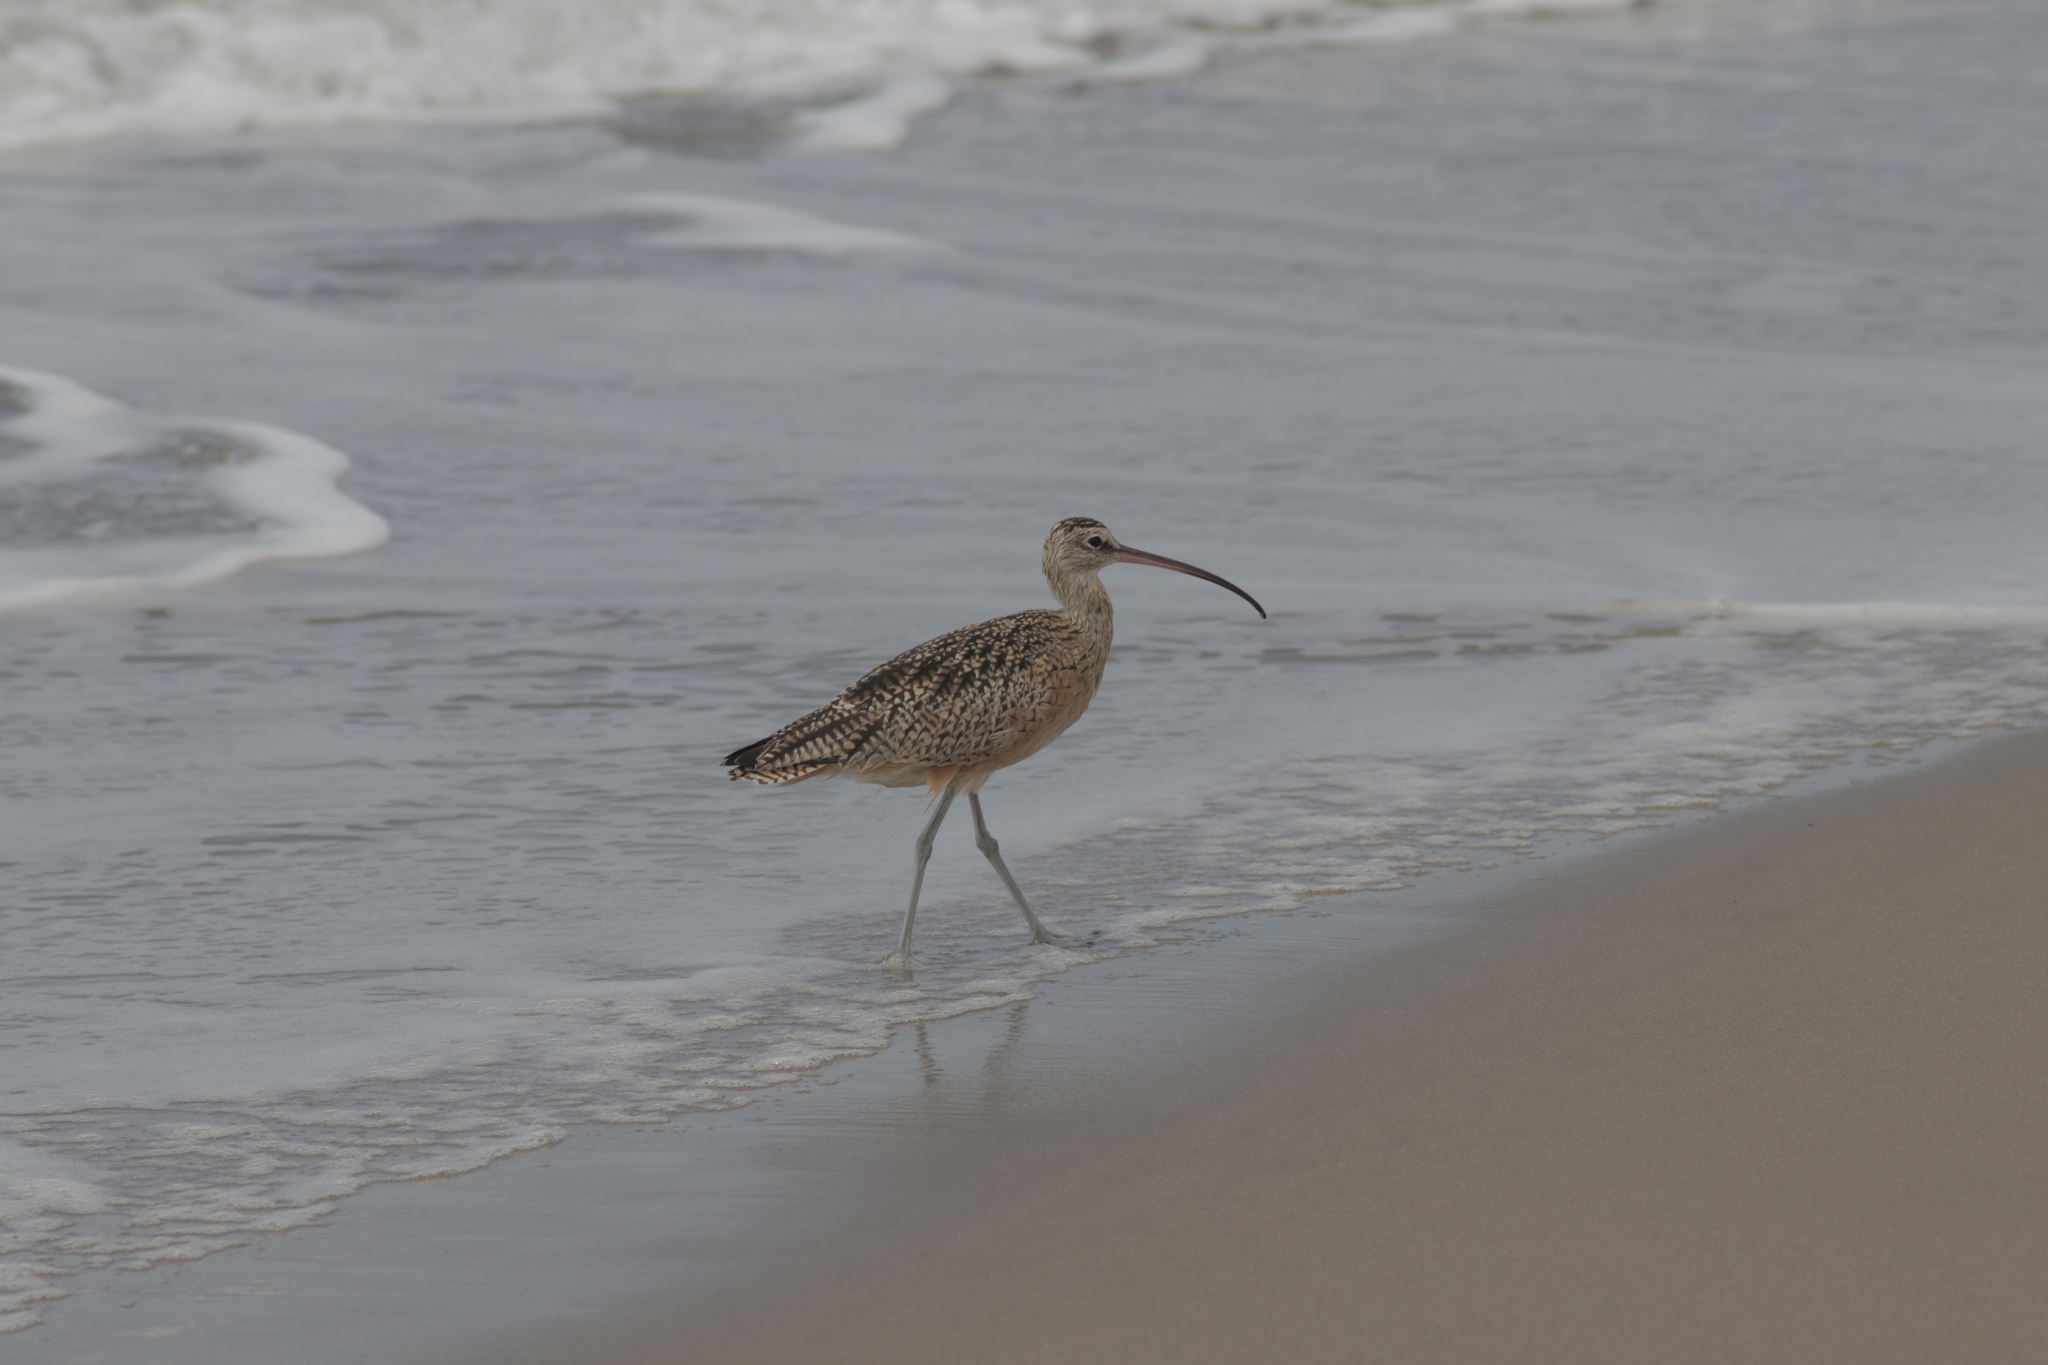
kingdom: Animalia
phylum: Chordata
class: Aves
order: Charadriiformes
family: Scolopacidae
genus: Numenius
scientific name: Numenius americanus
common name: Long-billed curlew
